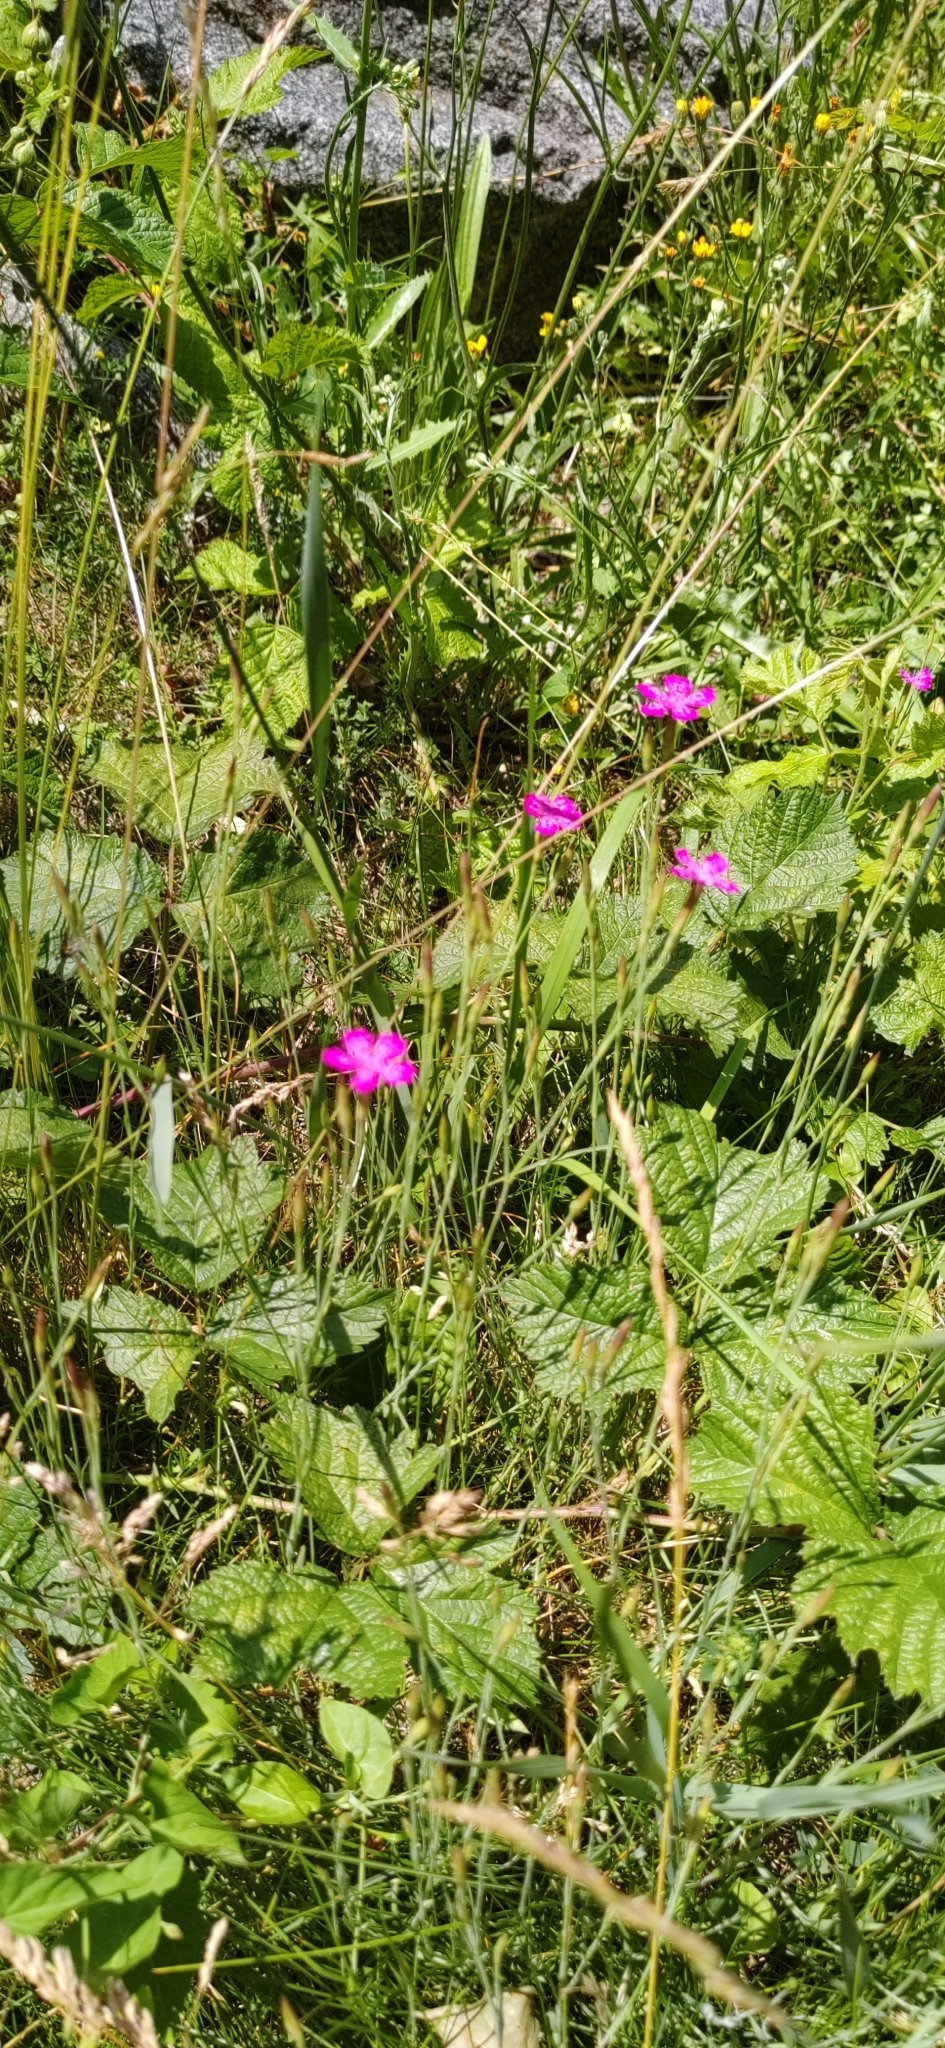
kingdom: Plantae
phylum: Tracheophyta
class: Magnoliopsida
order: Caryophyllales
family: Caryophyllaceae
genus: Dianthus
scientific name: Dianthus deltoides
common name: Maiden pink
